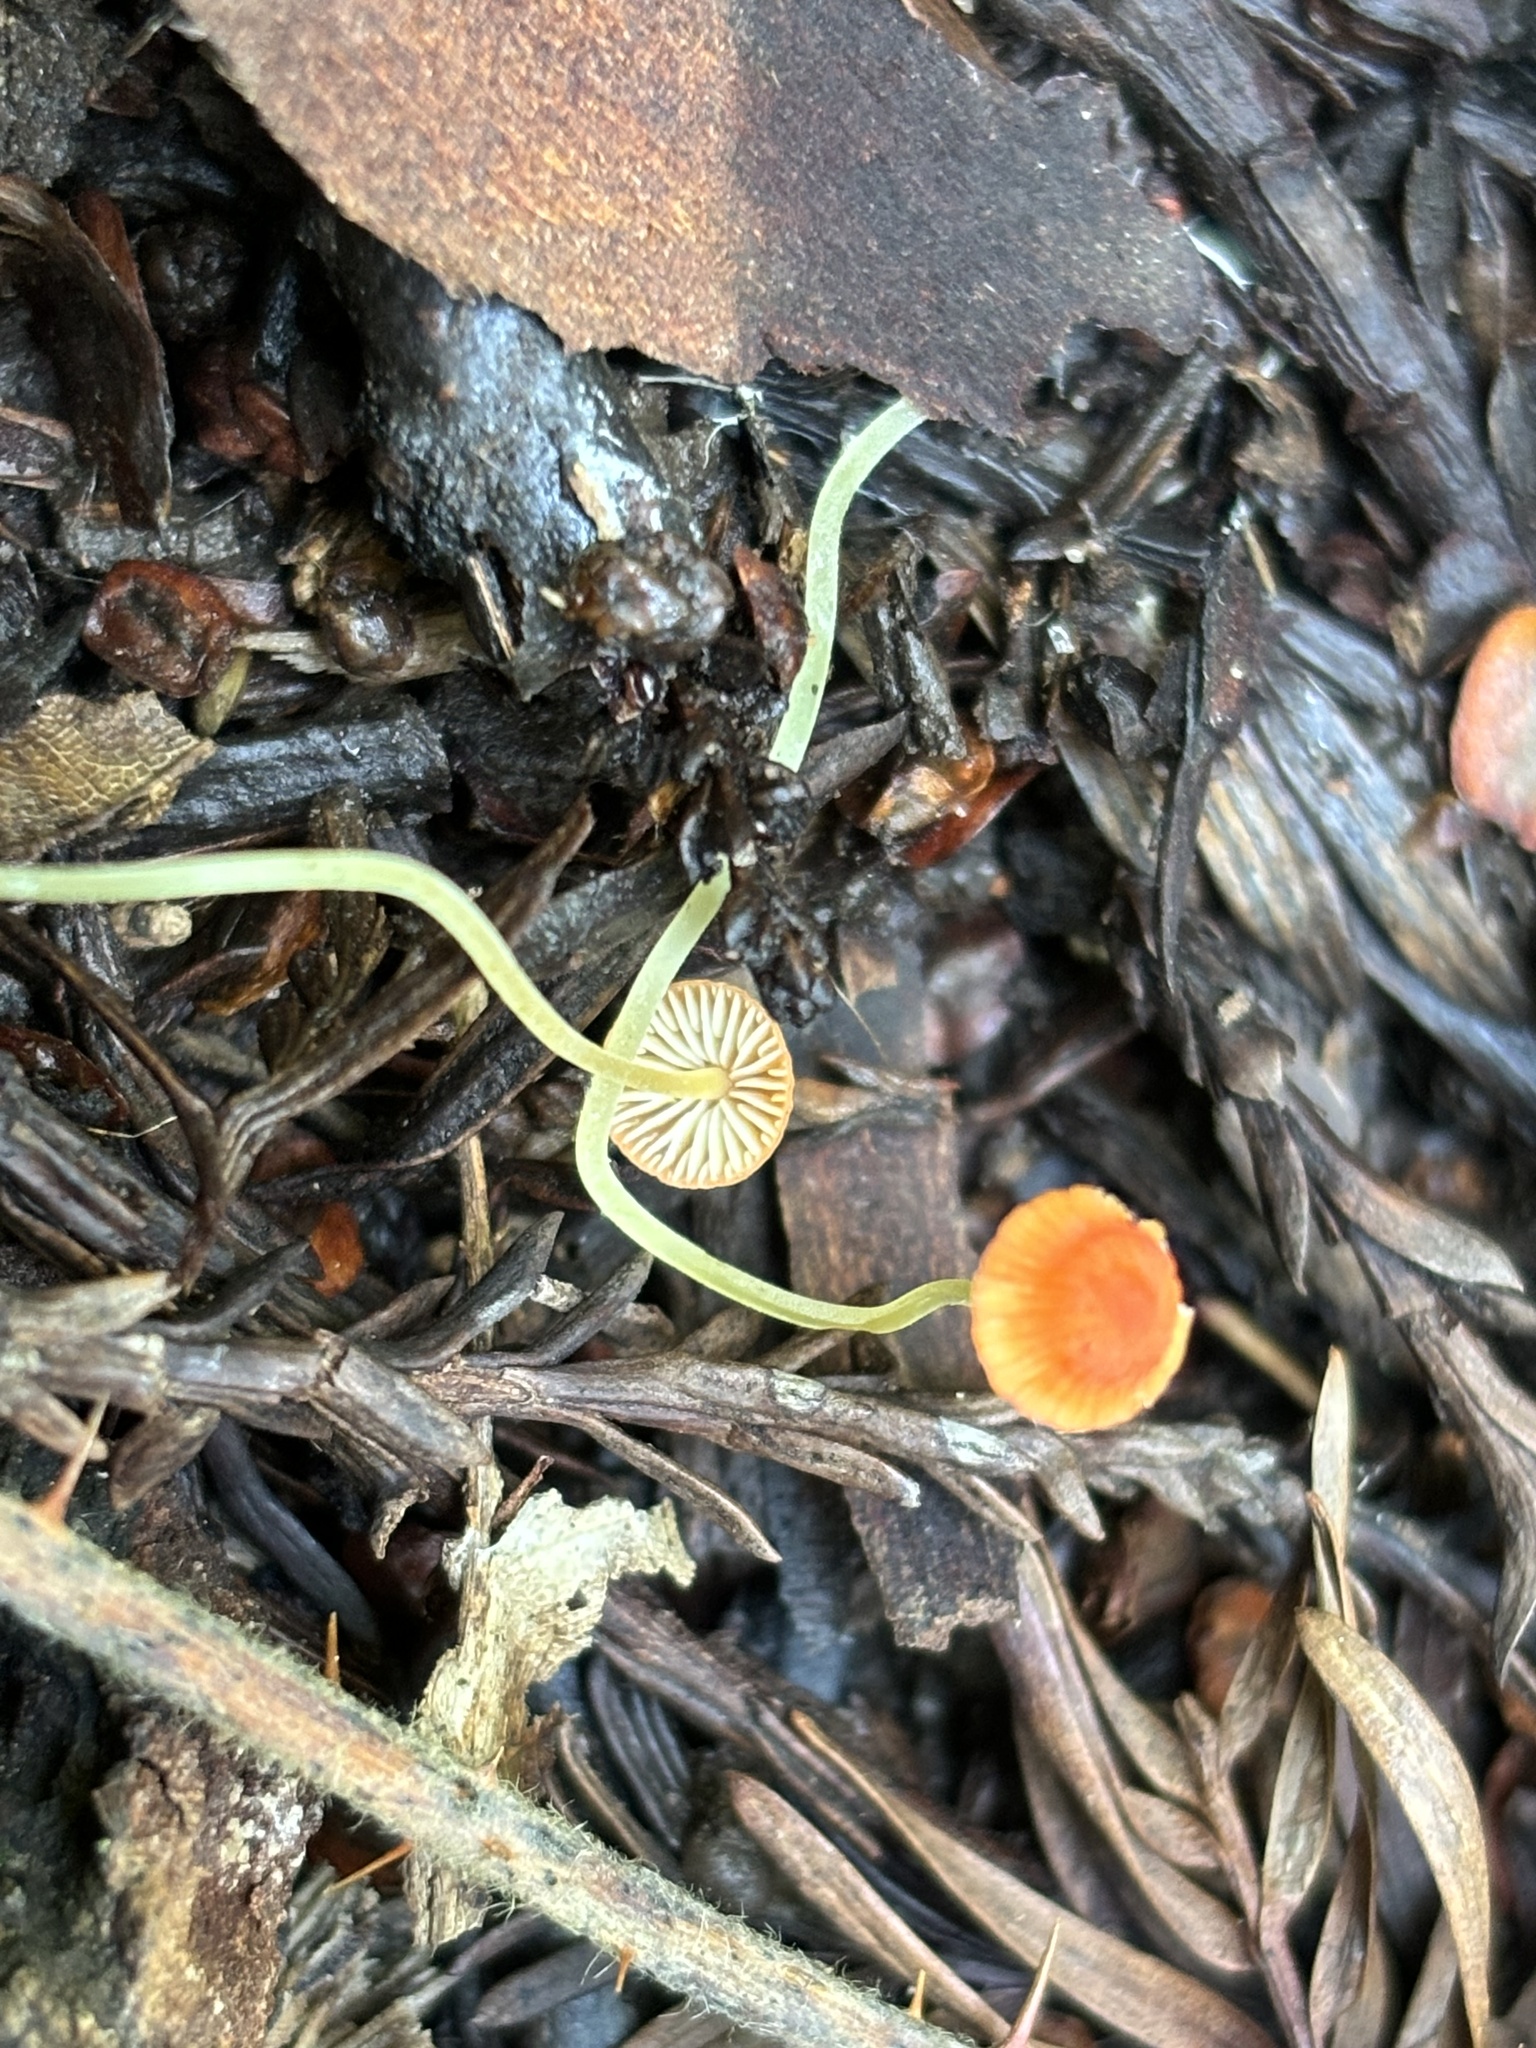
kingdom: Fungi
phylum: Basidiomycota
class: Agaricomycetes
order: Agaricales
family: Mycenaceae
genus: Mycena
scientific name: Mycena acicula
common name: Orange bonnet
